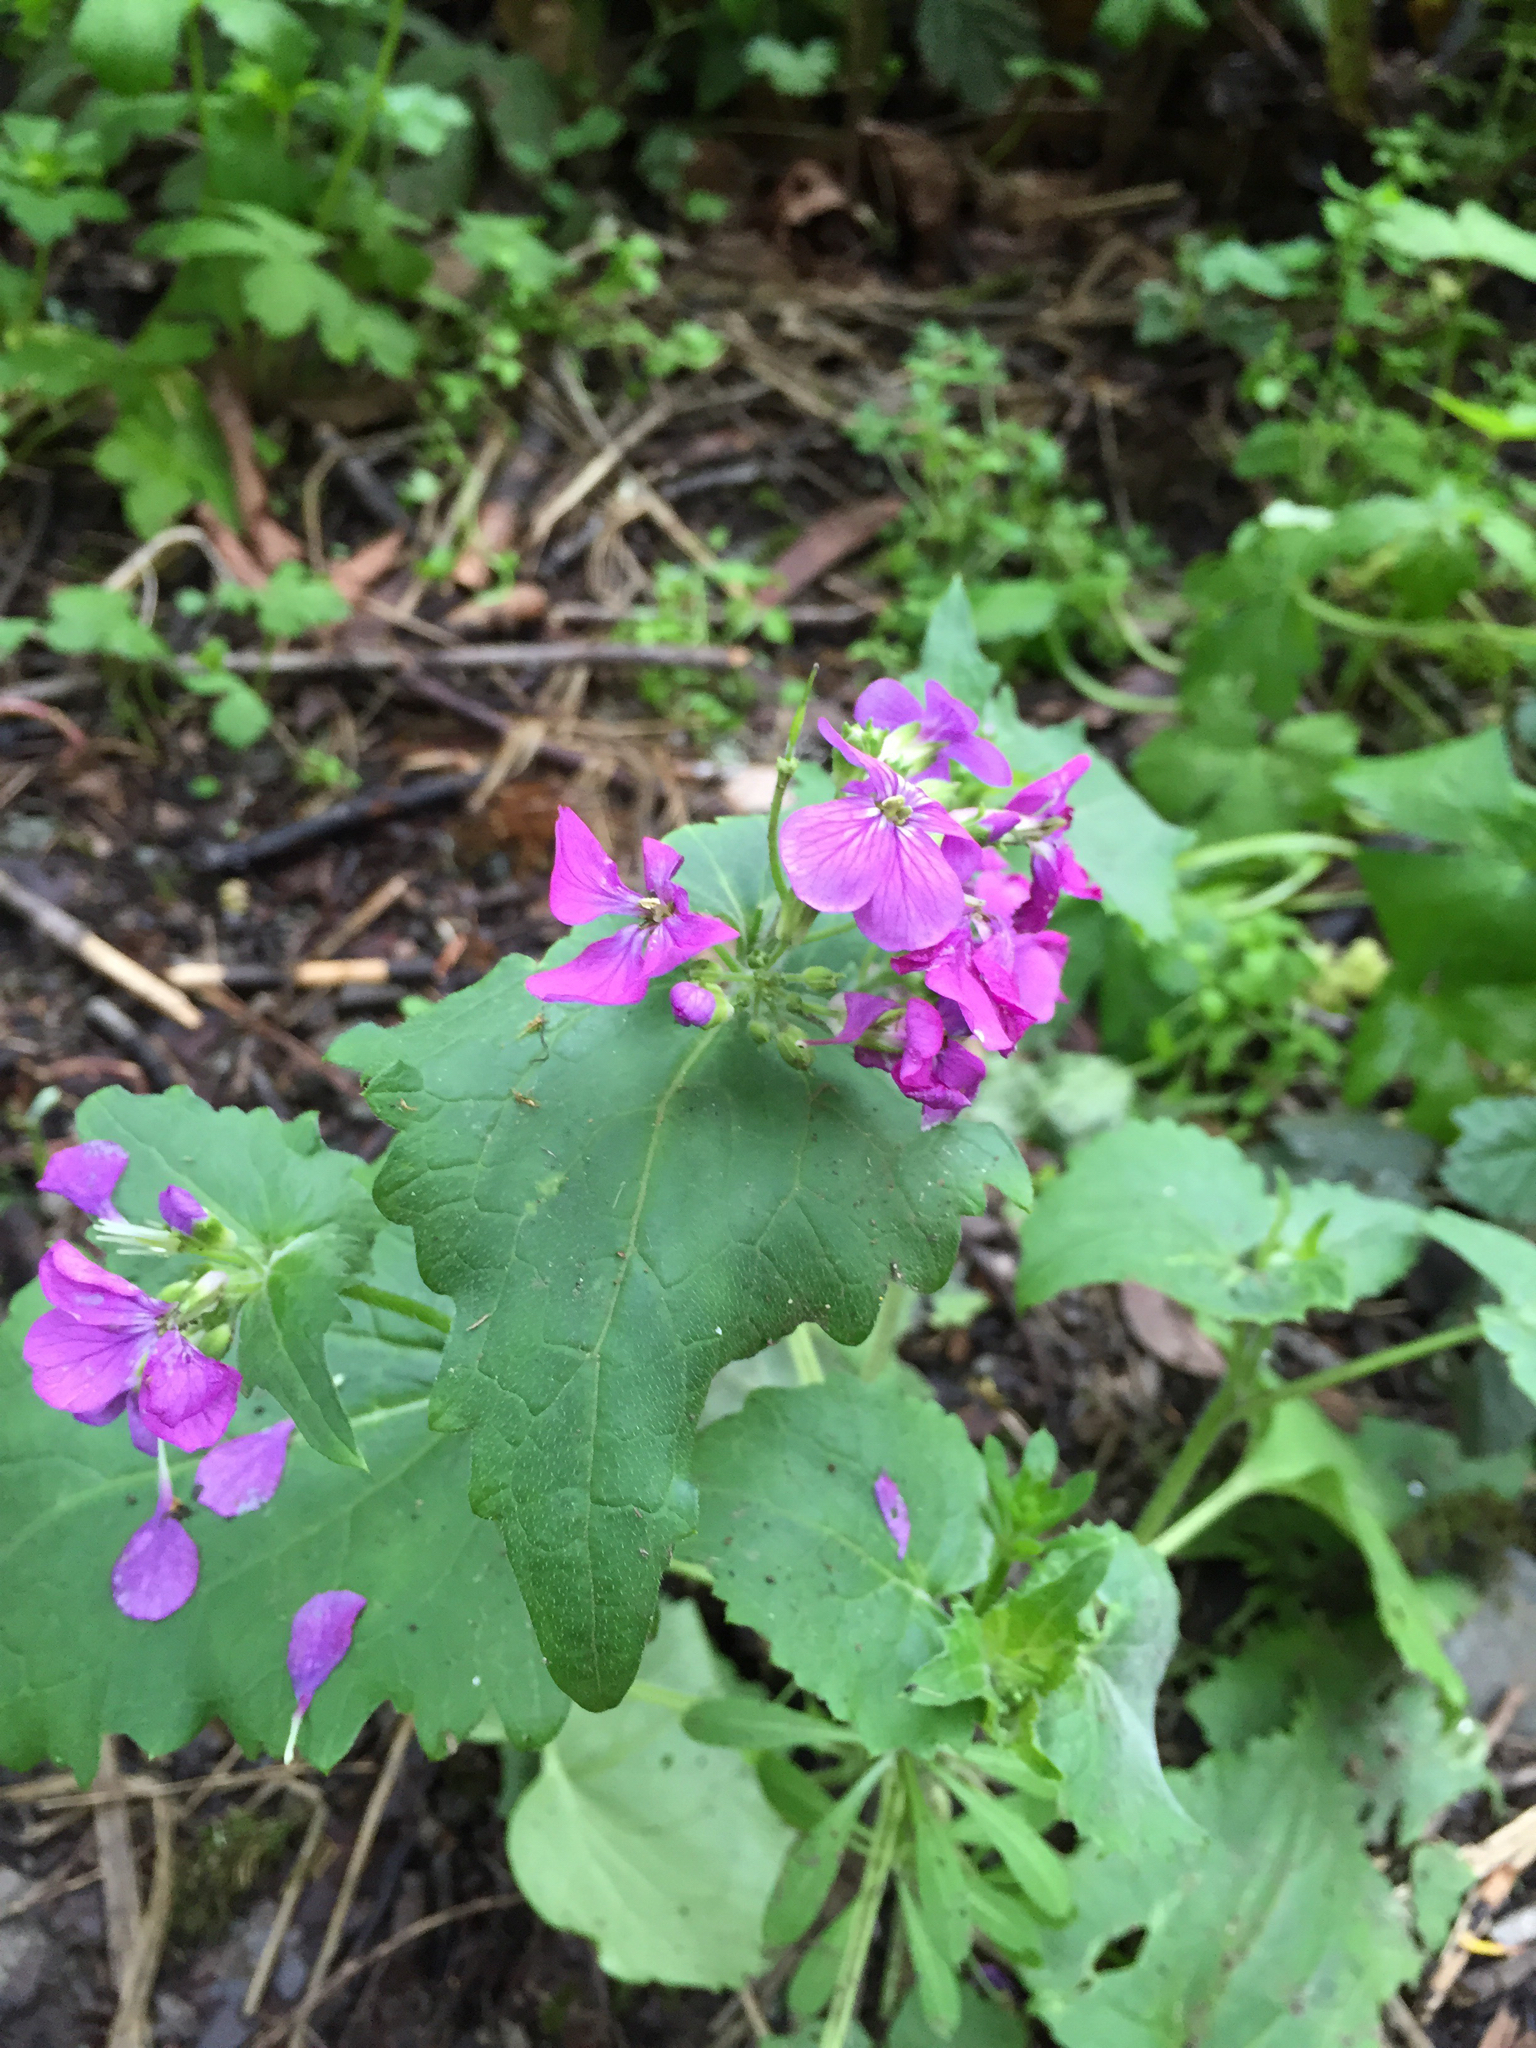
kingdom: Plantae
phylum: Tracheophyta
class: Magnoliopsida
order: Brassicales
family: Brassicaceae
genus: Lunaria
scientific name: Lunaria annua
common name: Honesty
